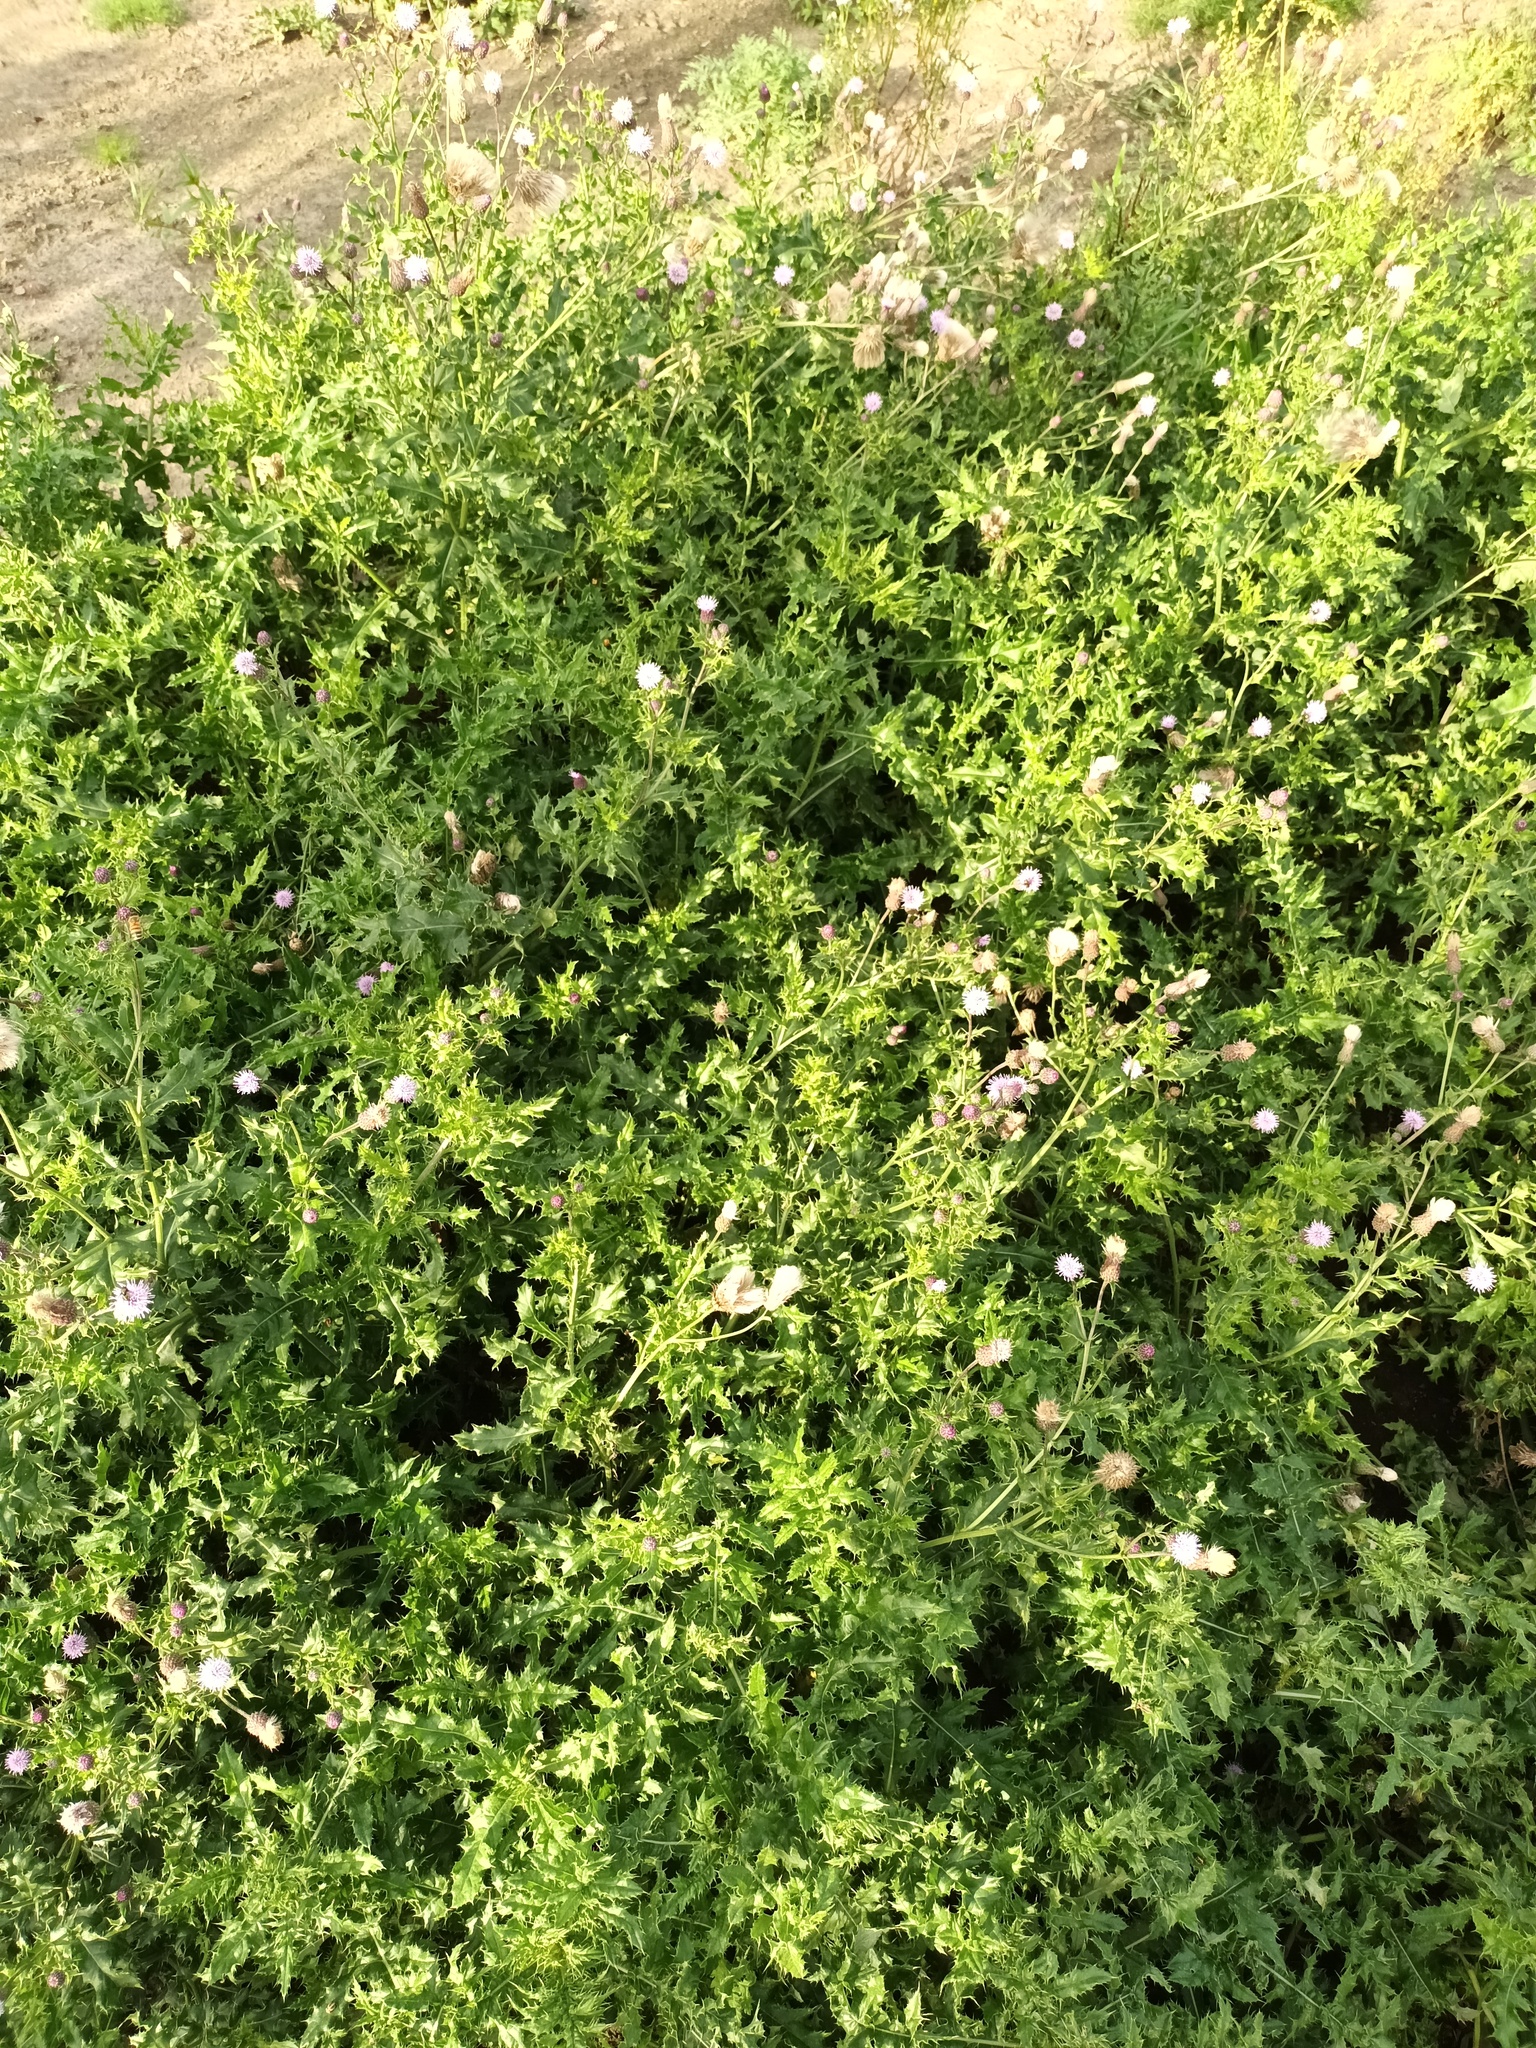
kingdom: Plantae
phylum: Tracheophyta
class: Magnoliopsida
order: Asterales
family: Asteraceae
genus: Cirsium
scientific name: Cirsium arvense
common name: Creeping thistle
